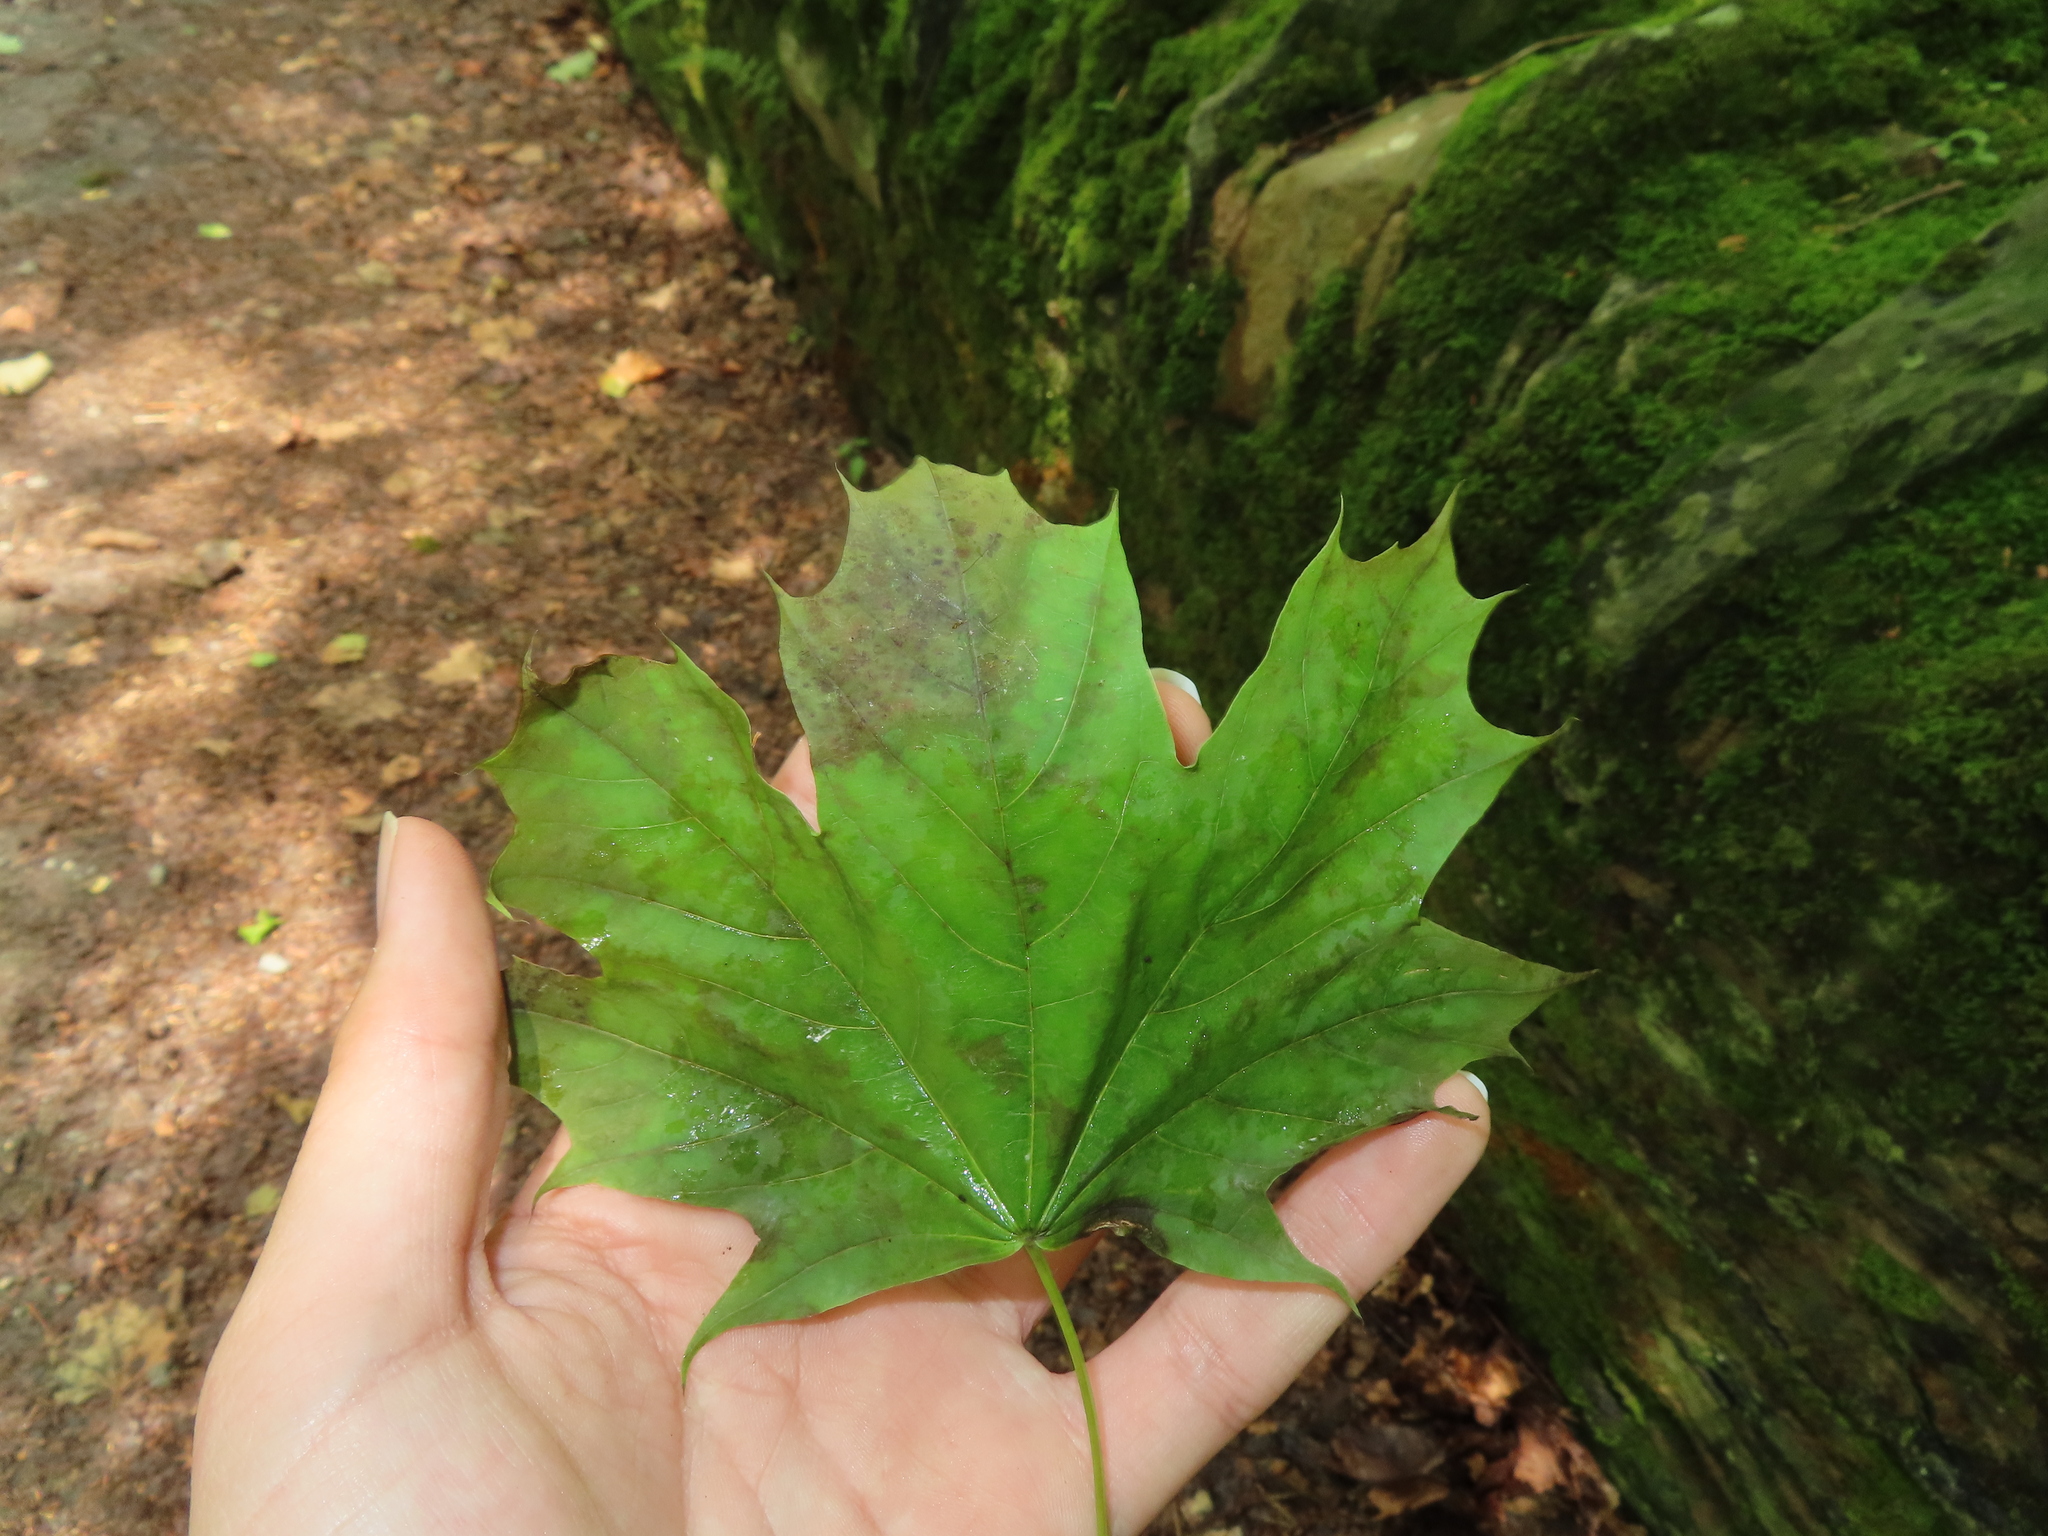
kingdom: Plantae
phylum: Tracheophyta
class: Magnoliopsida
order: Sapindales
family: Sapindaceae
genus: Acer
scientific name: Acer platanoides
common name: Norway maple
